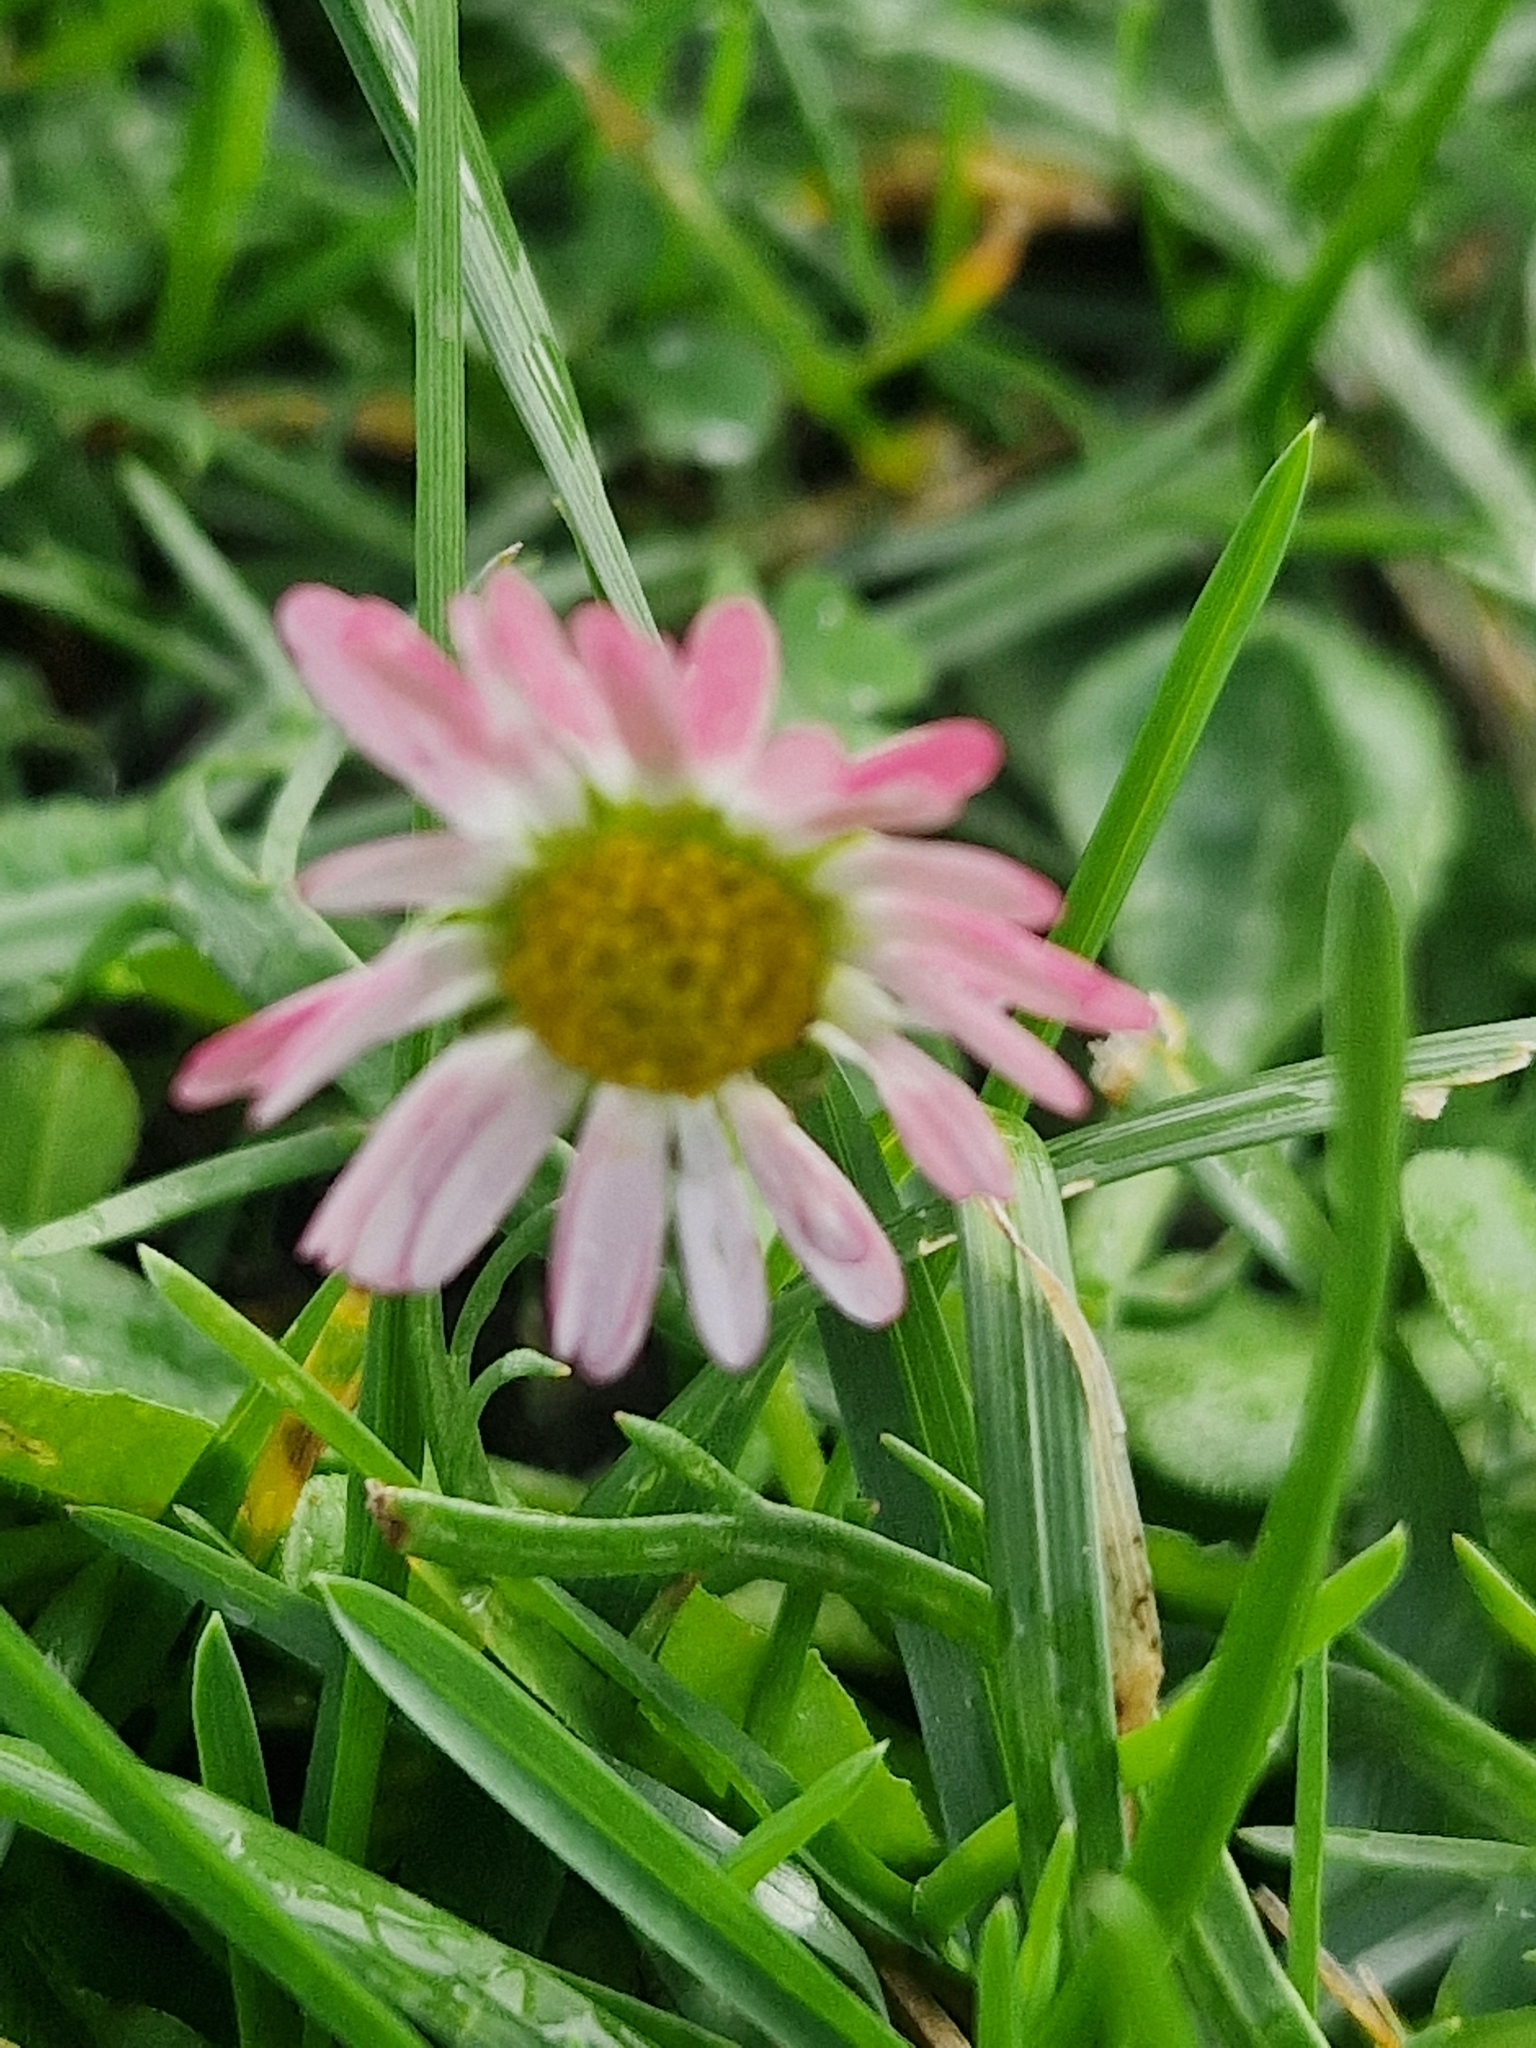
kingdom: Plantae
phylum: Tracheophyta
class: Magnoliopsida
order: Asterales
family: Asteraceae
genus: Bellis
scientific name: Bellis perennis
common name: Lawndaisy
